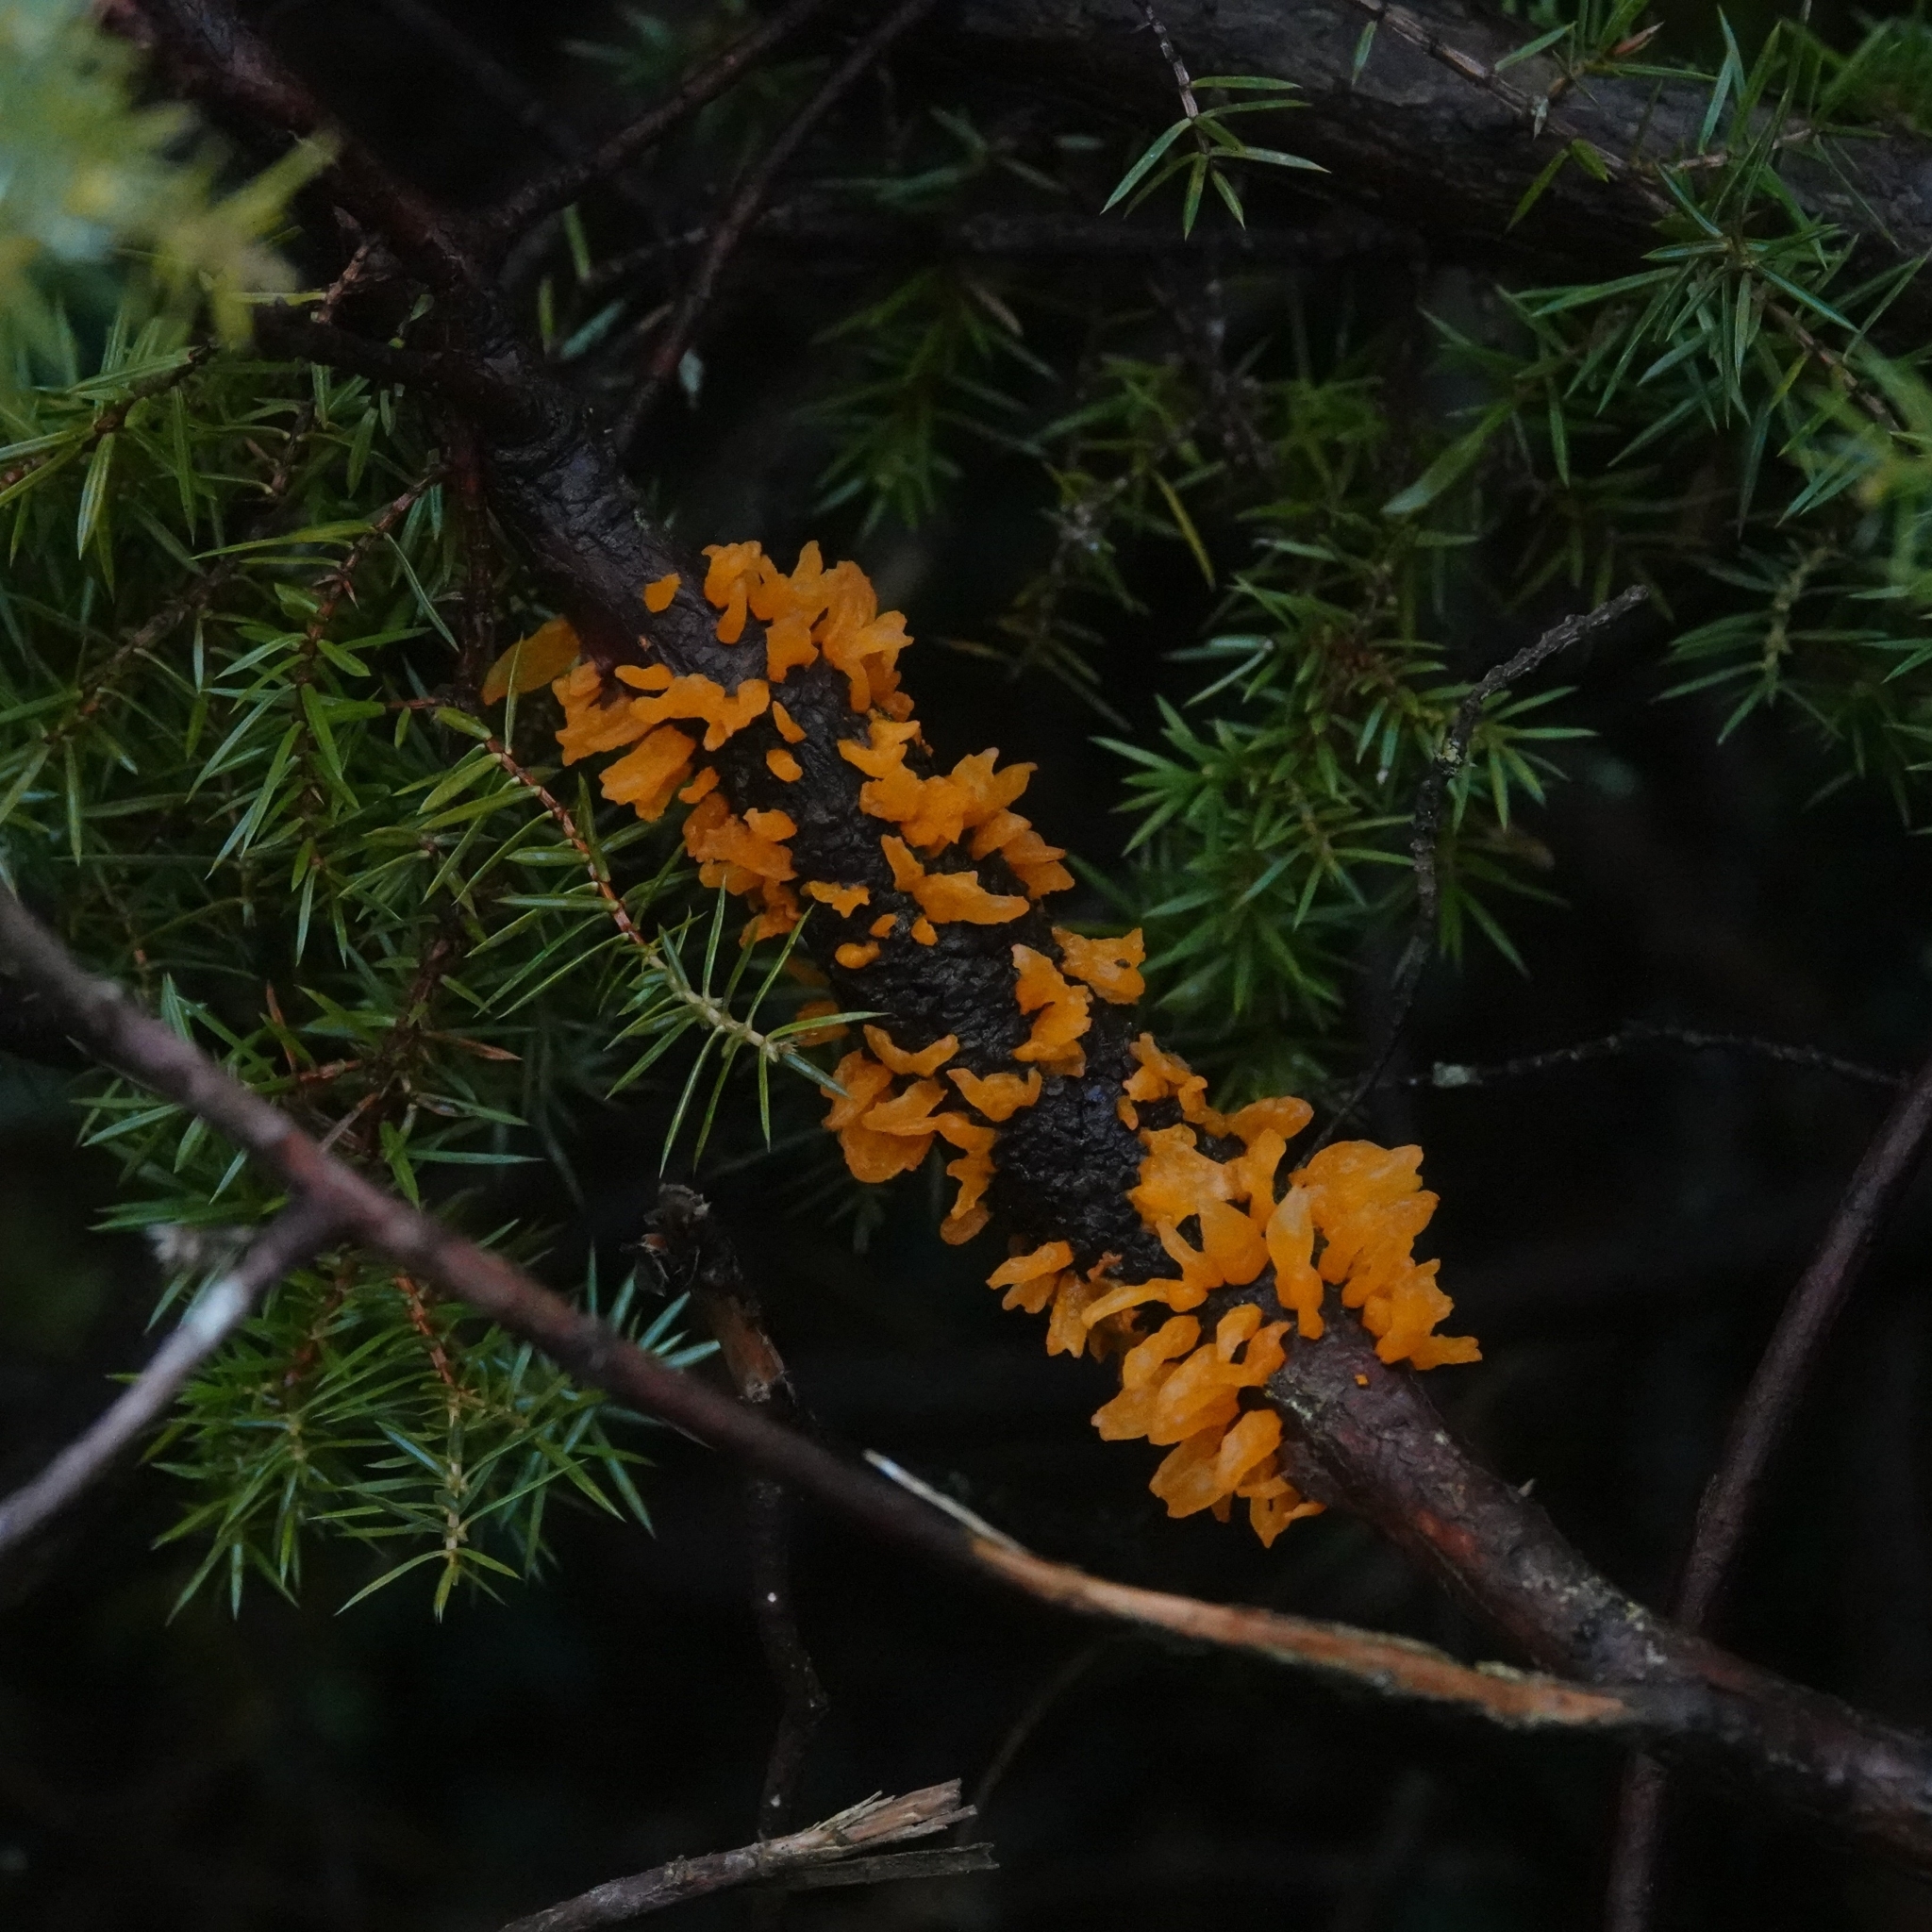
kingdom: Fungi
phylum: Basidiomycota
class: Pucciniomycetes
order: Pucciniales
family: Gymnosporangiaceae
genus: Gymnosporangium
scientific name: Gymnosporangium clavariiforme
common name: Tongues of fire
